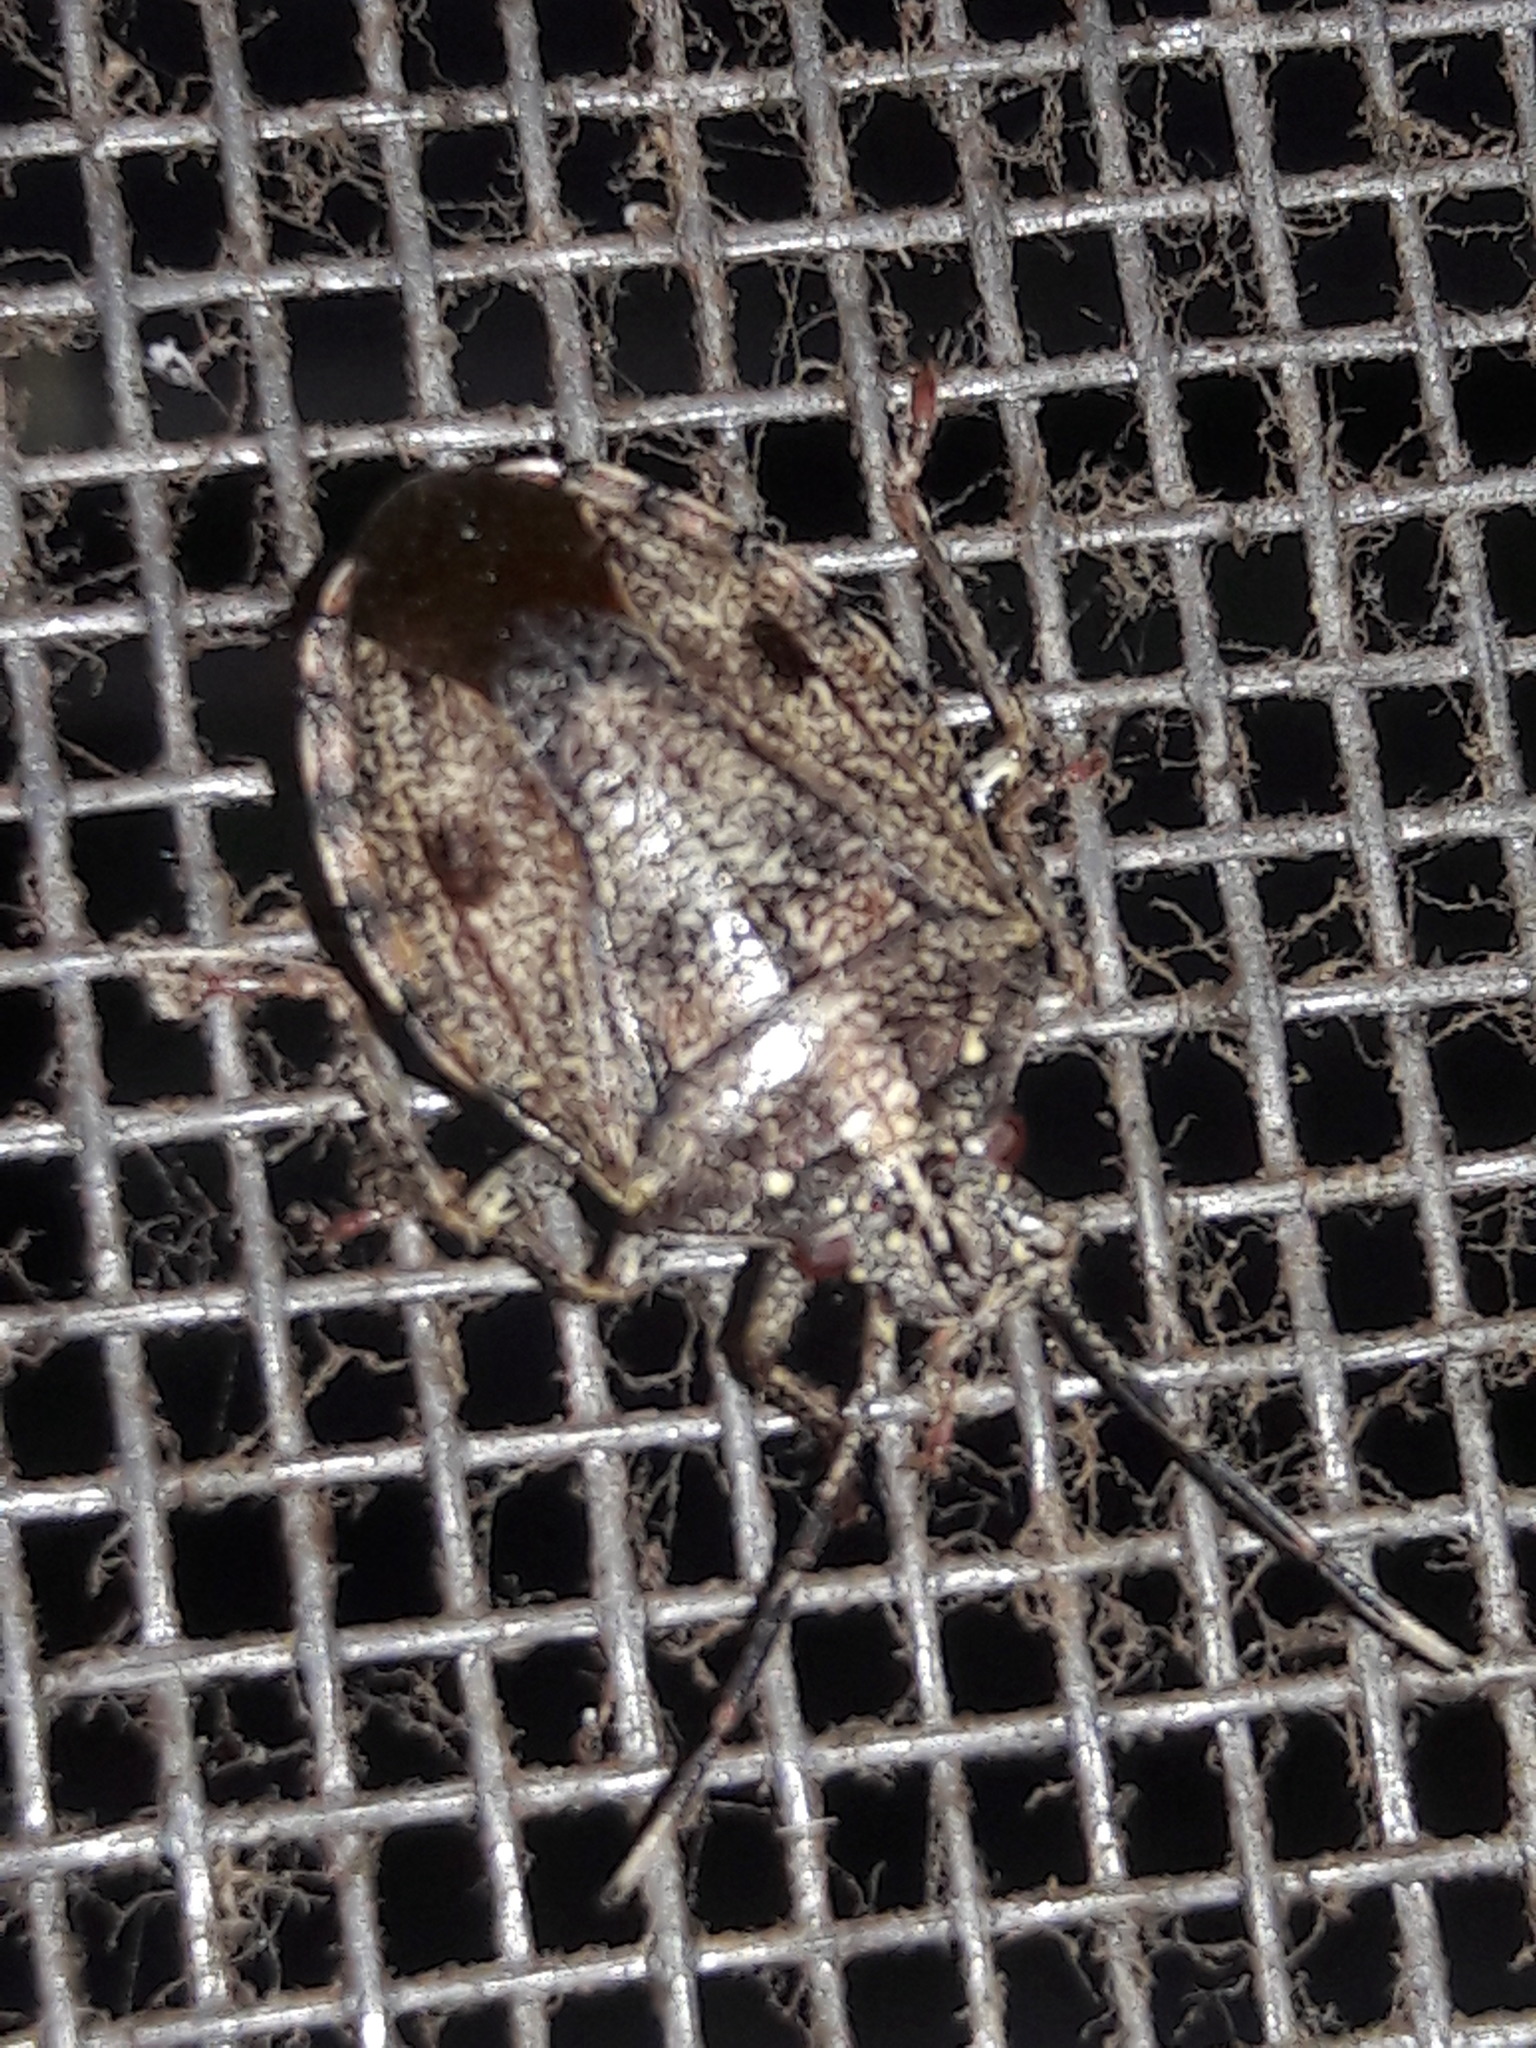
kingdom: Animalia
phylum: Arthropoda
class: Insecta
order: Hemiptera
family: Pentatomidae
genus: Antiteuchus
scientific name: Antiteuchus tripterus
